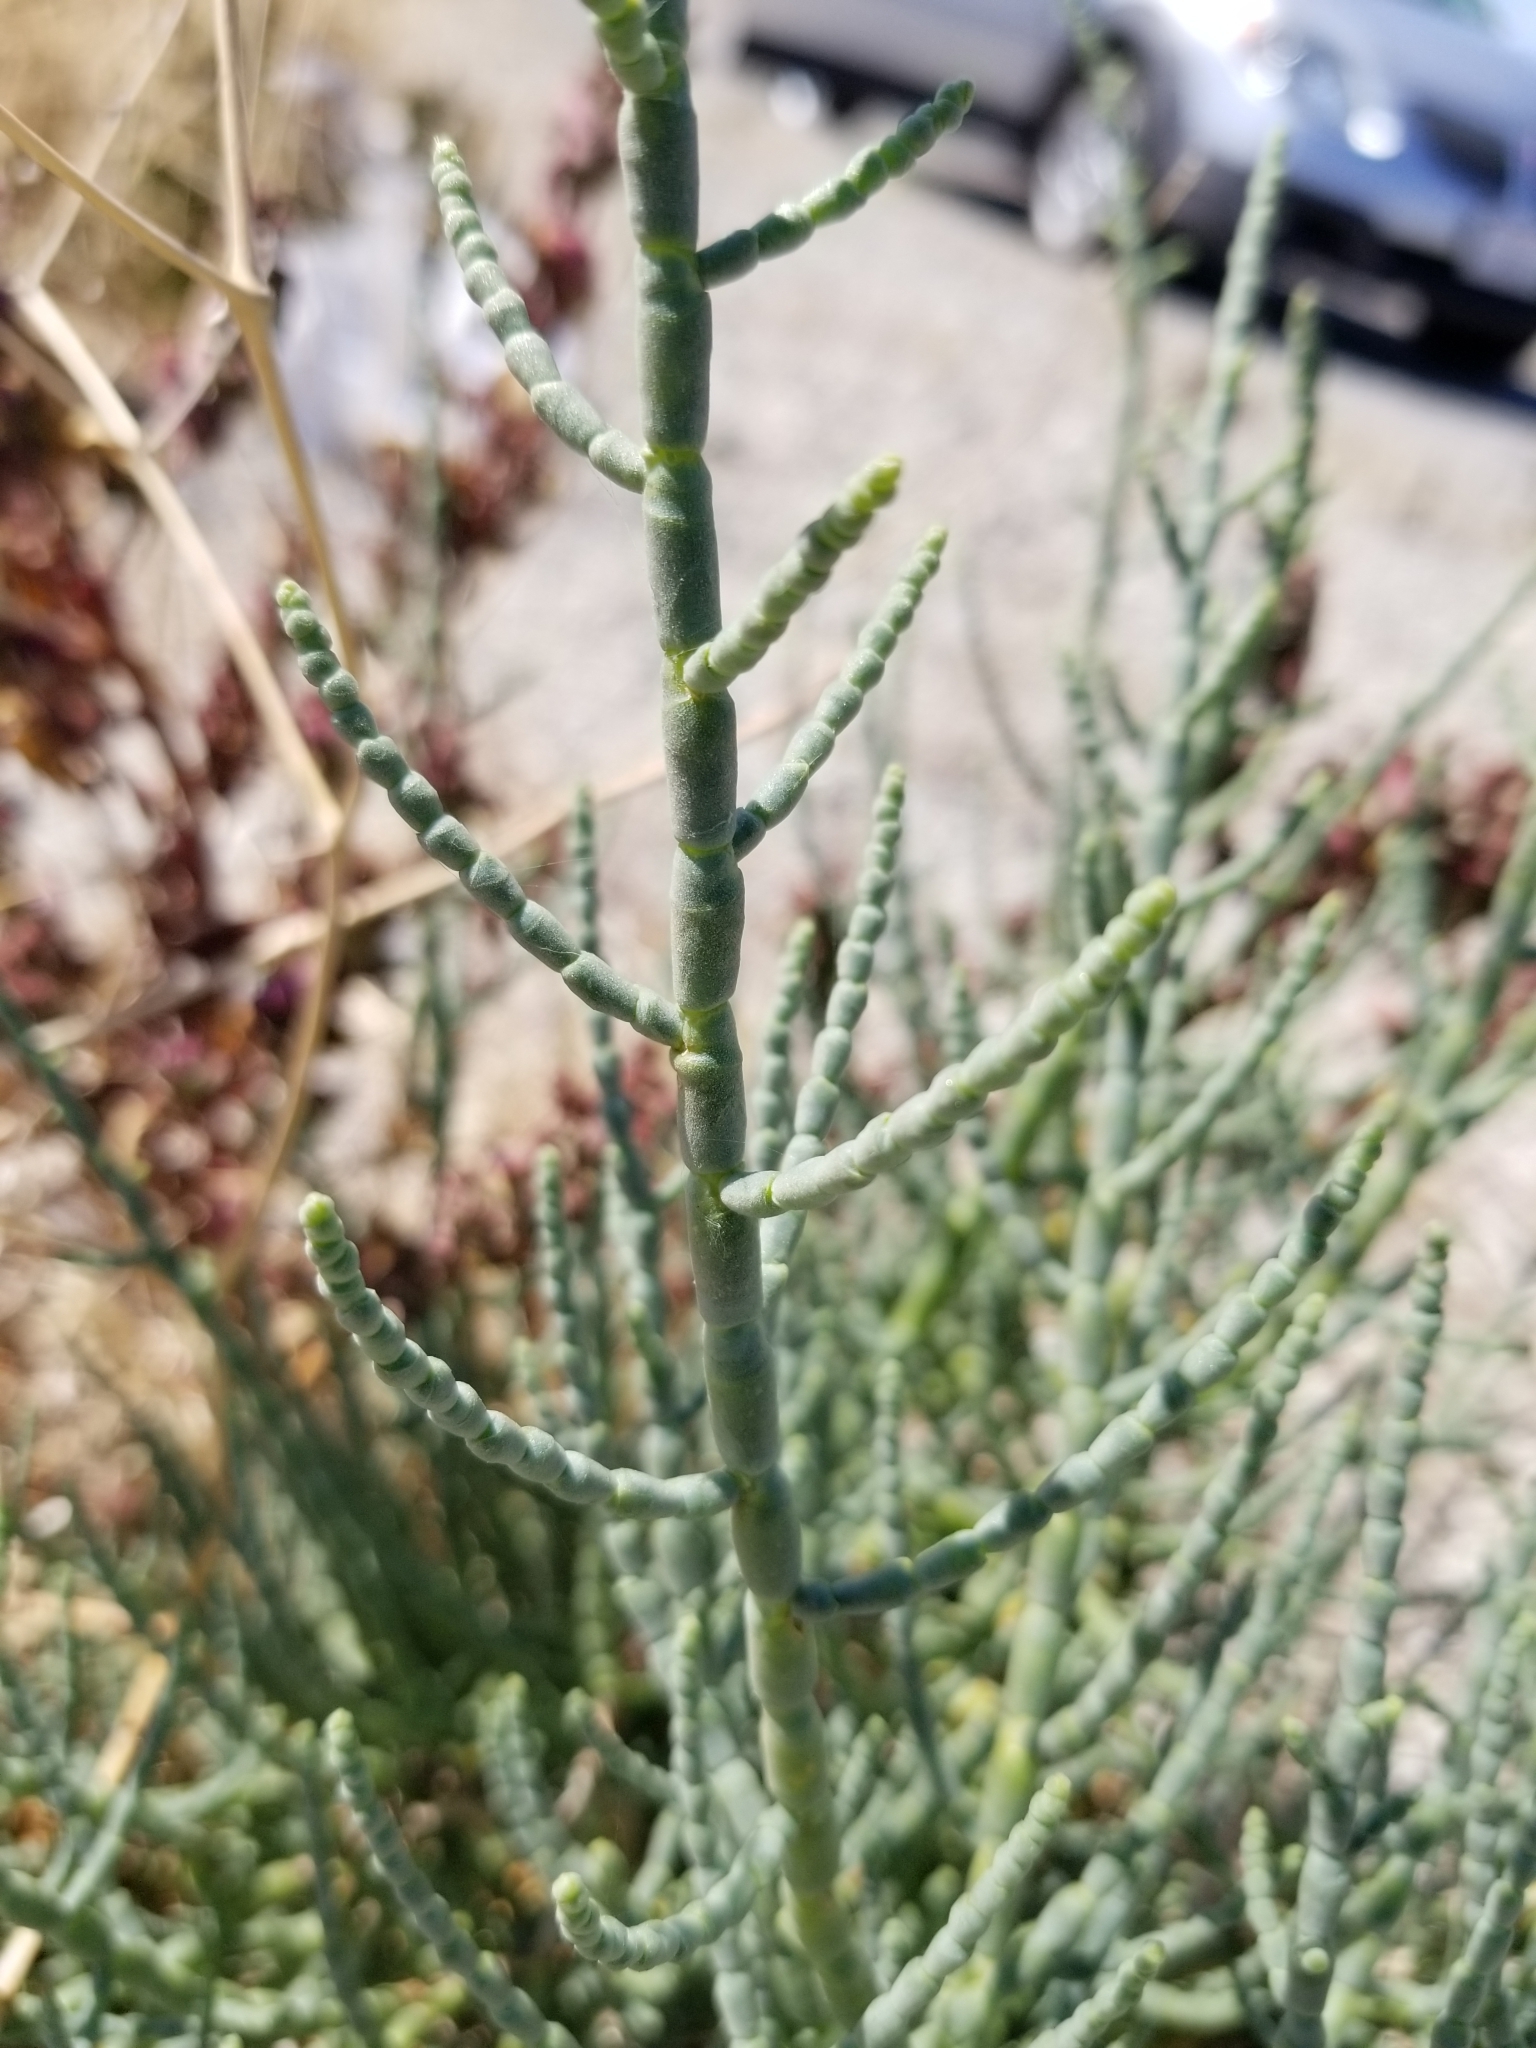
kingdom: Plantae
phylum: Tracheophyta
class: Magnoliopsida
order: Caryophyllales
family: Amaranthaceae
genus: Allenrolfea
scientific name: Allenrolfea occidentalis
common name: Iodine-bush
